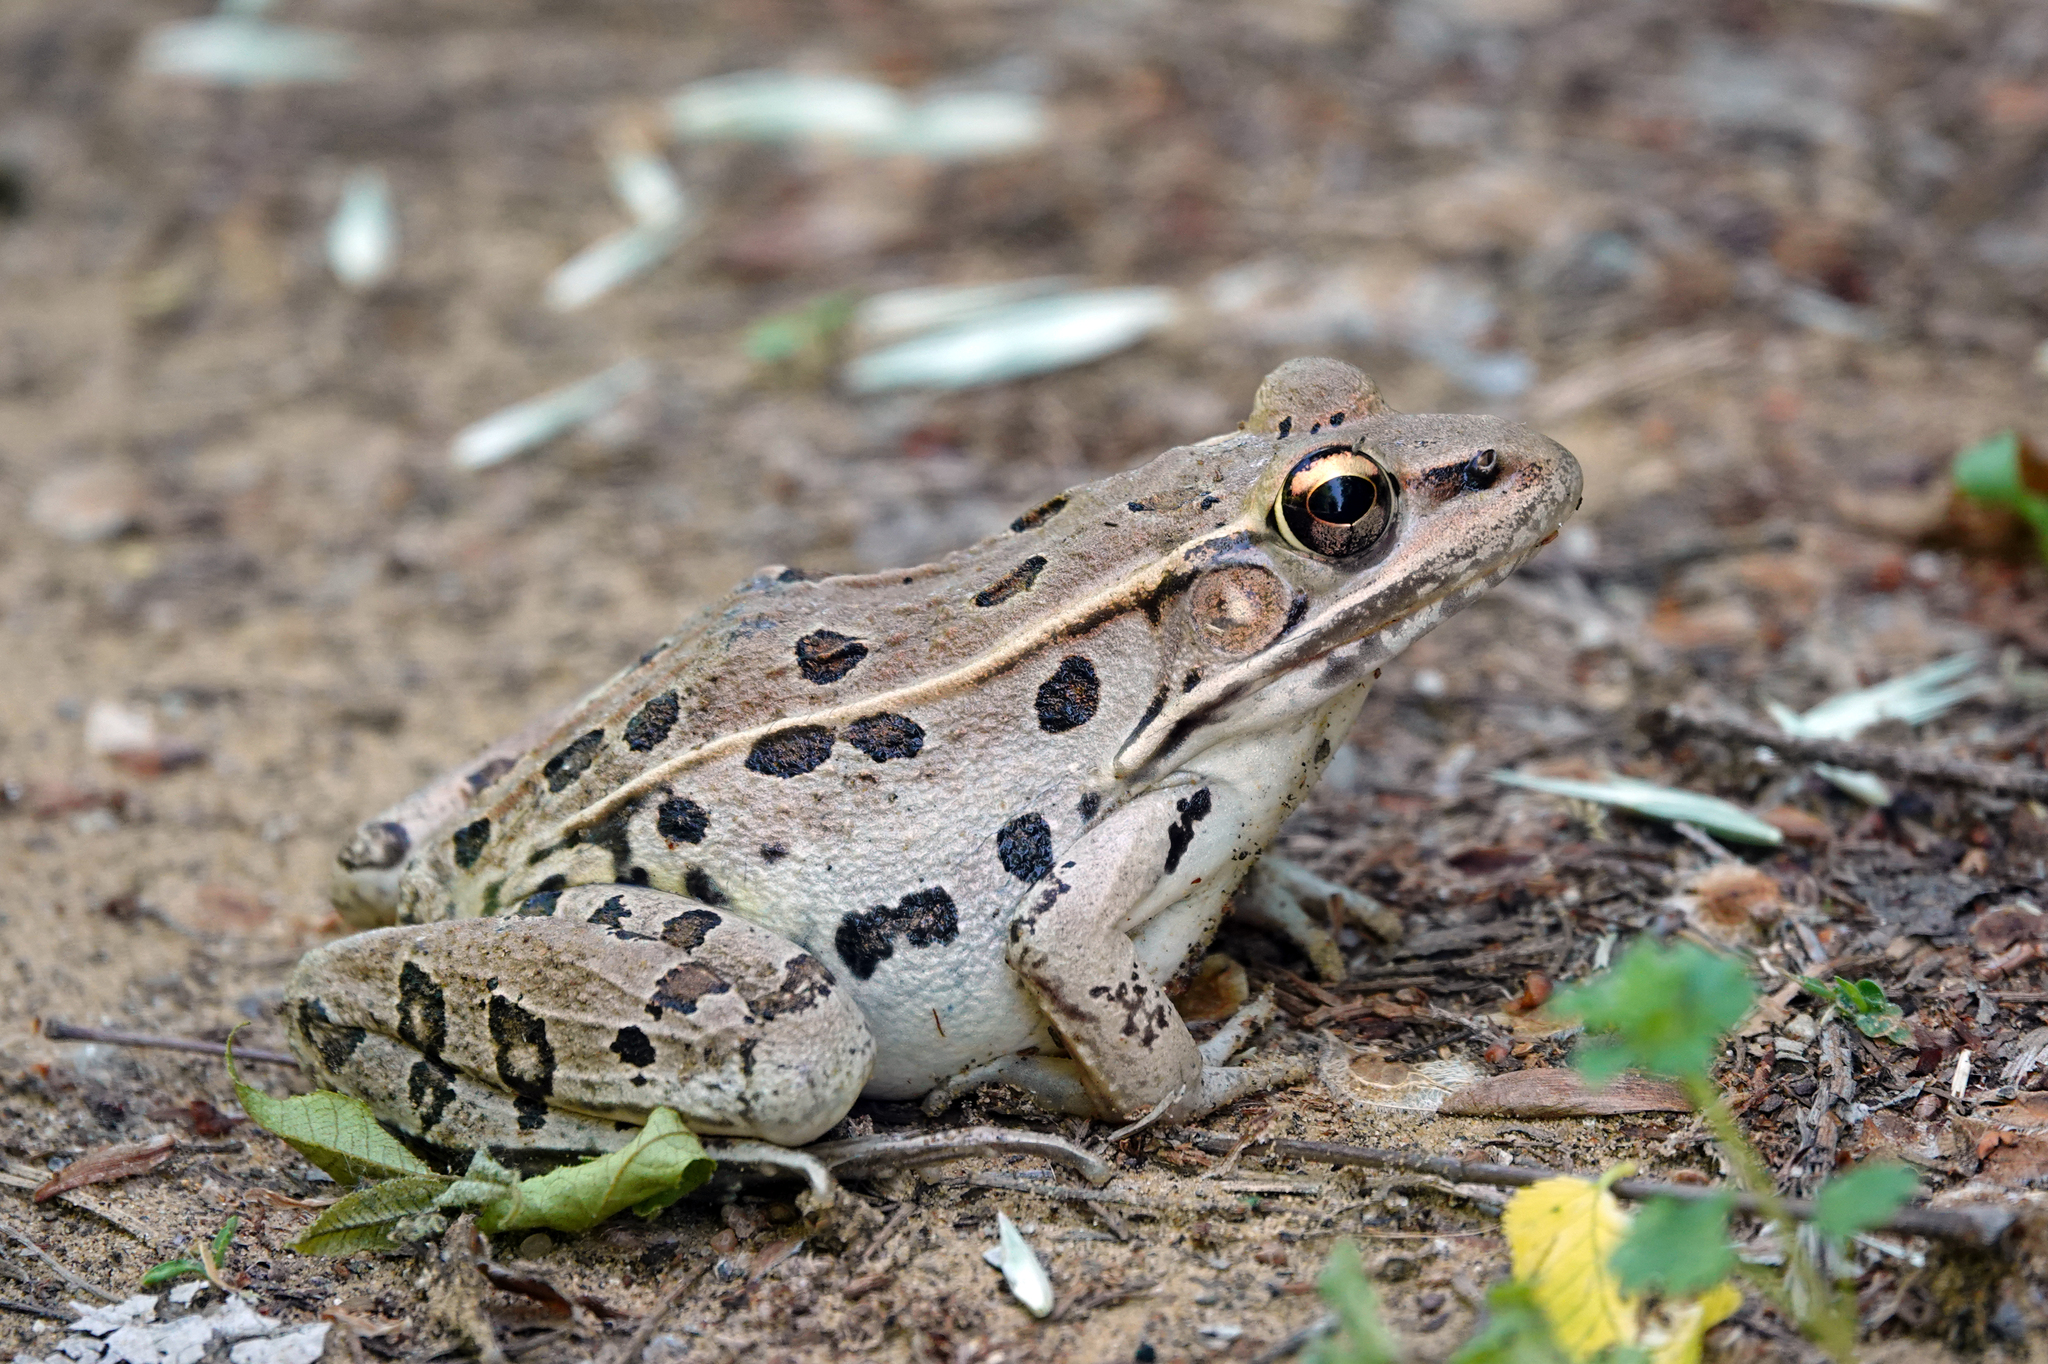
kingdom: Animalia
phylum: Chordata
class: Amphibia
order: Anura
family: Ranidae
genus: Lithobates
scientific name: Lithobates sphenocephalus
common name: Southern leopard frog
